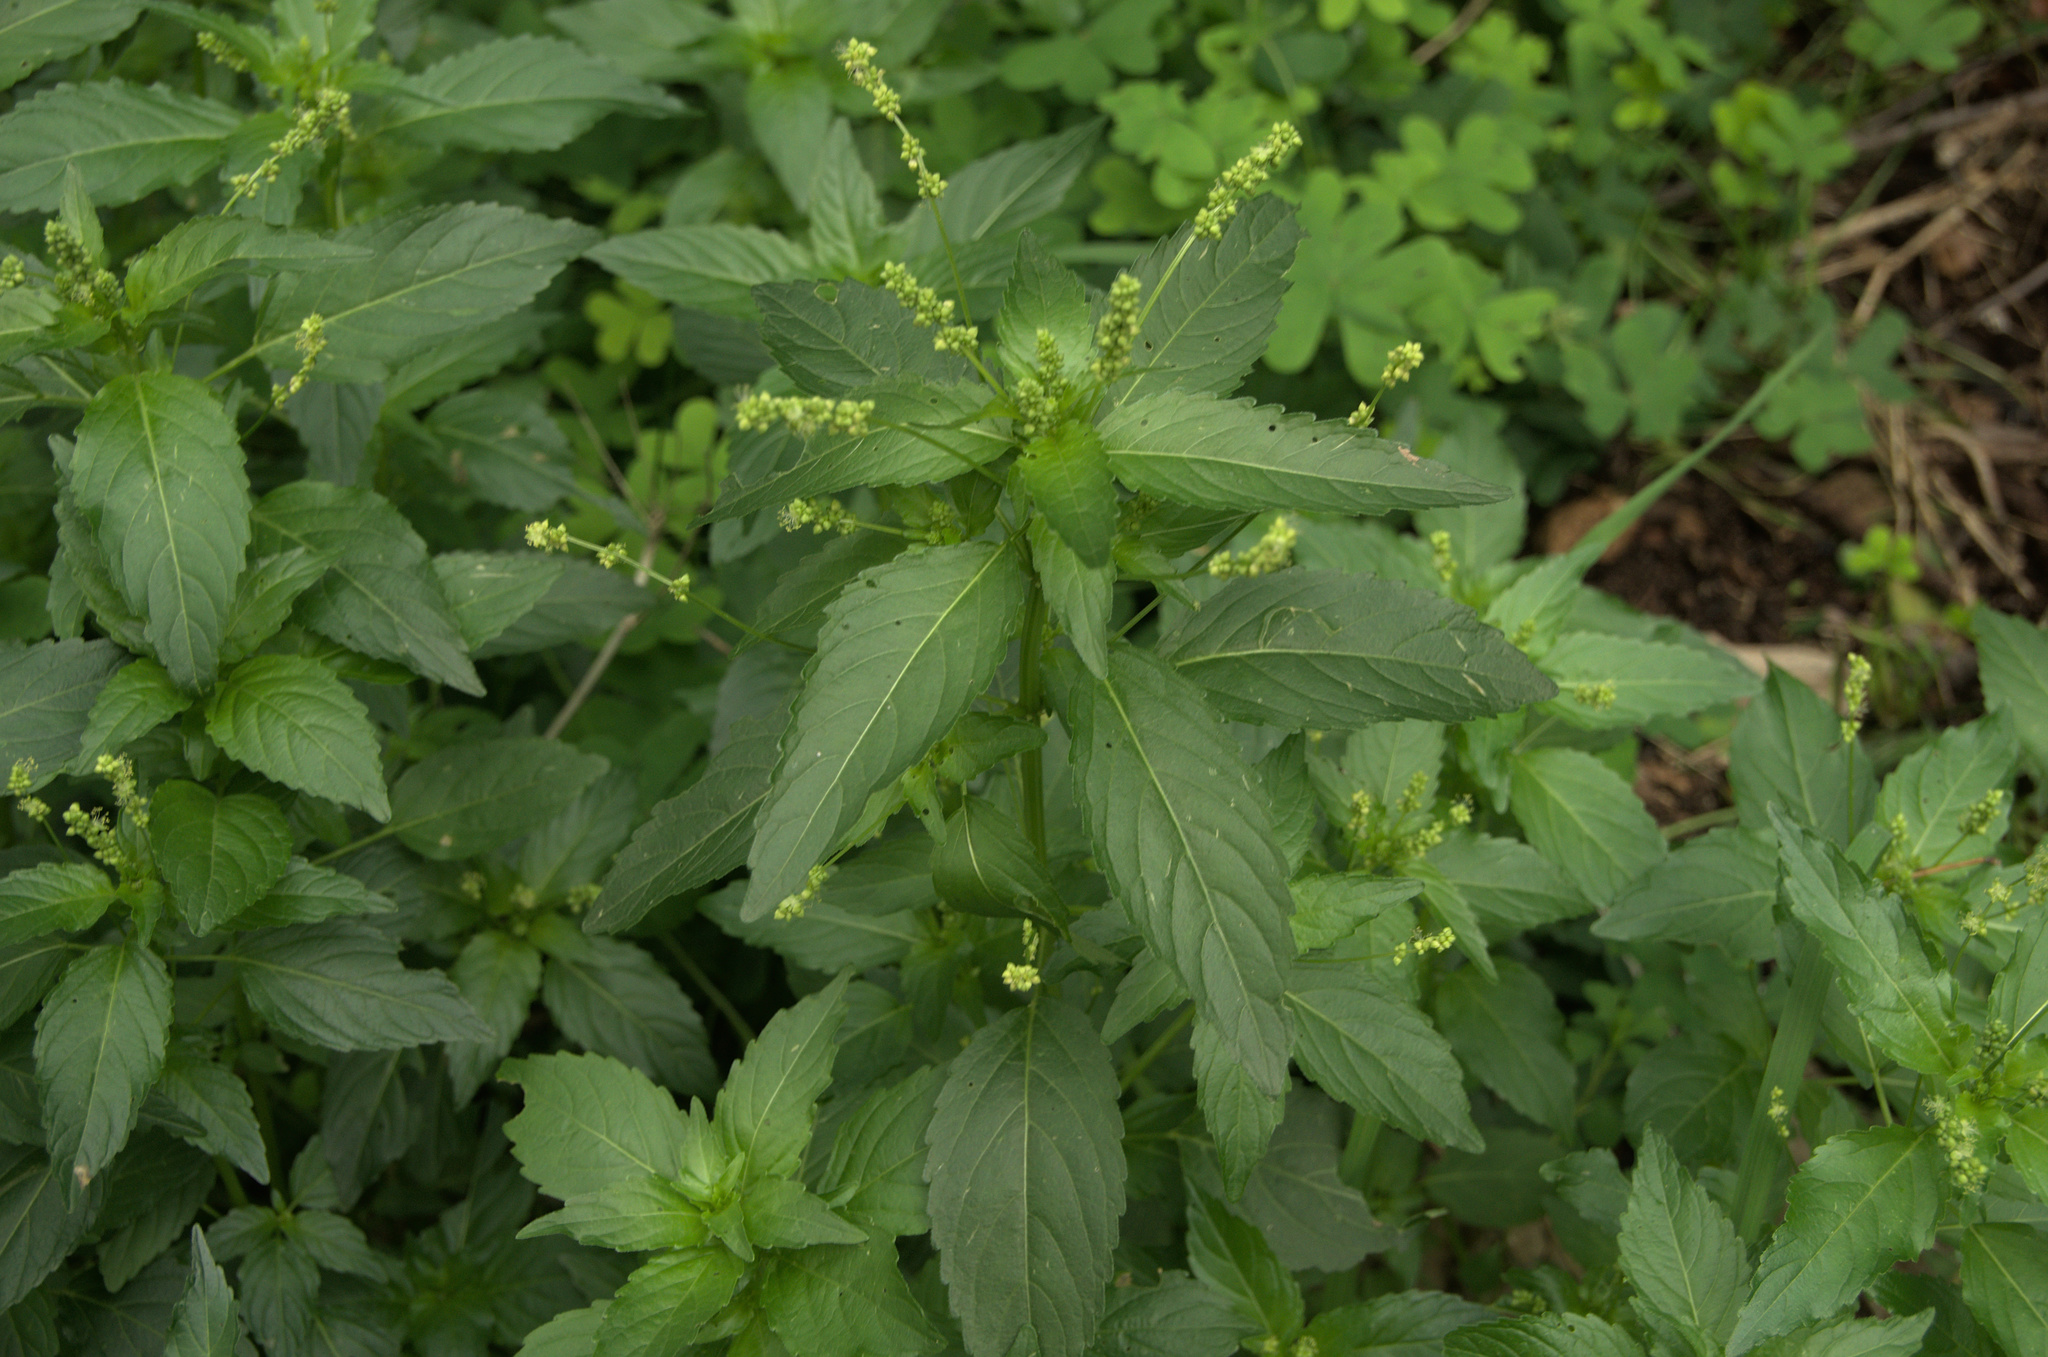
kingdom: Plantae
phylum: Tracheophyta
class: Magnoliopsida
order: Malpighiales
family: Euphorbiaceae
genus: Mercurialis
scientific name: Mercurialis annua
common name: Annual mercury
